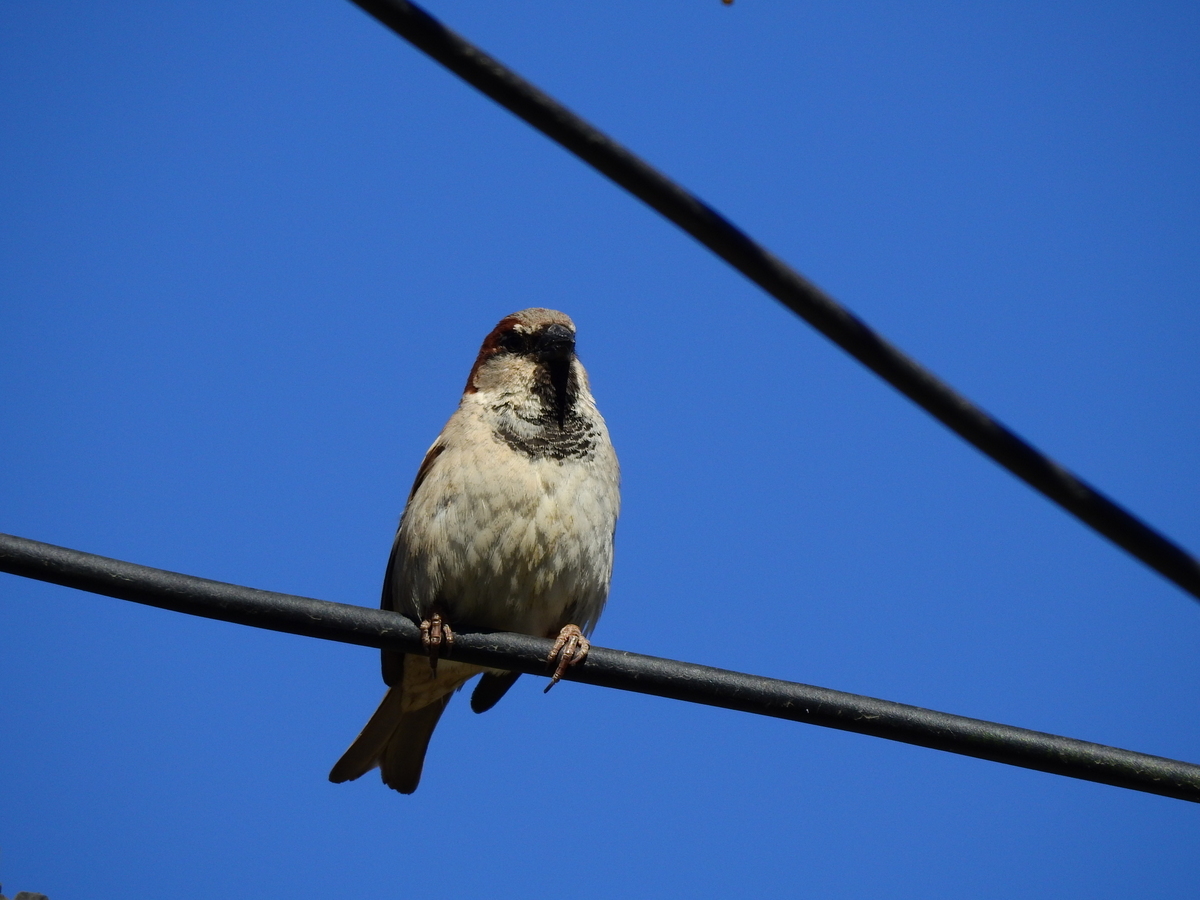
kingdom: Animalia
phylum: Chordata
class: Aves
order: Passeriformes
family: Passeridae
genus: Passer
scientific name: Passer domesticus
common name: House sparrow
